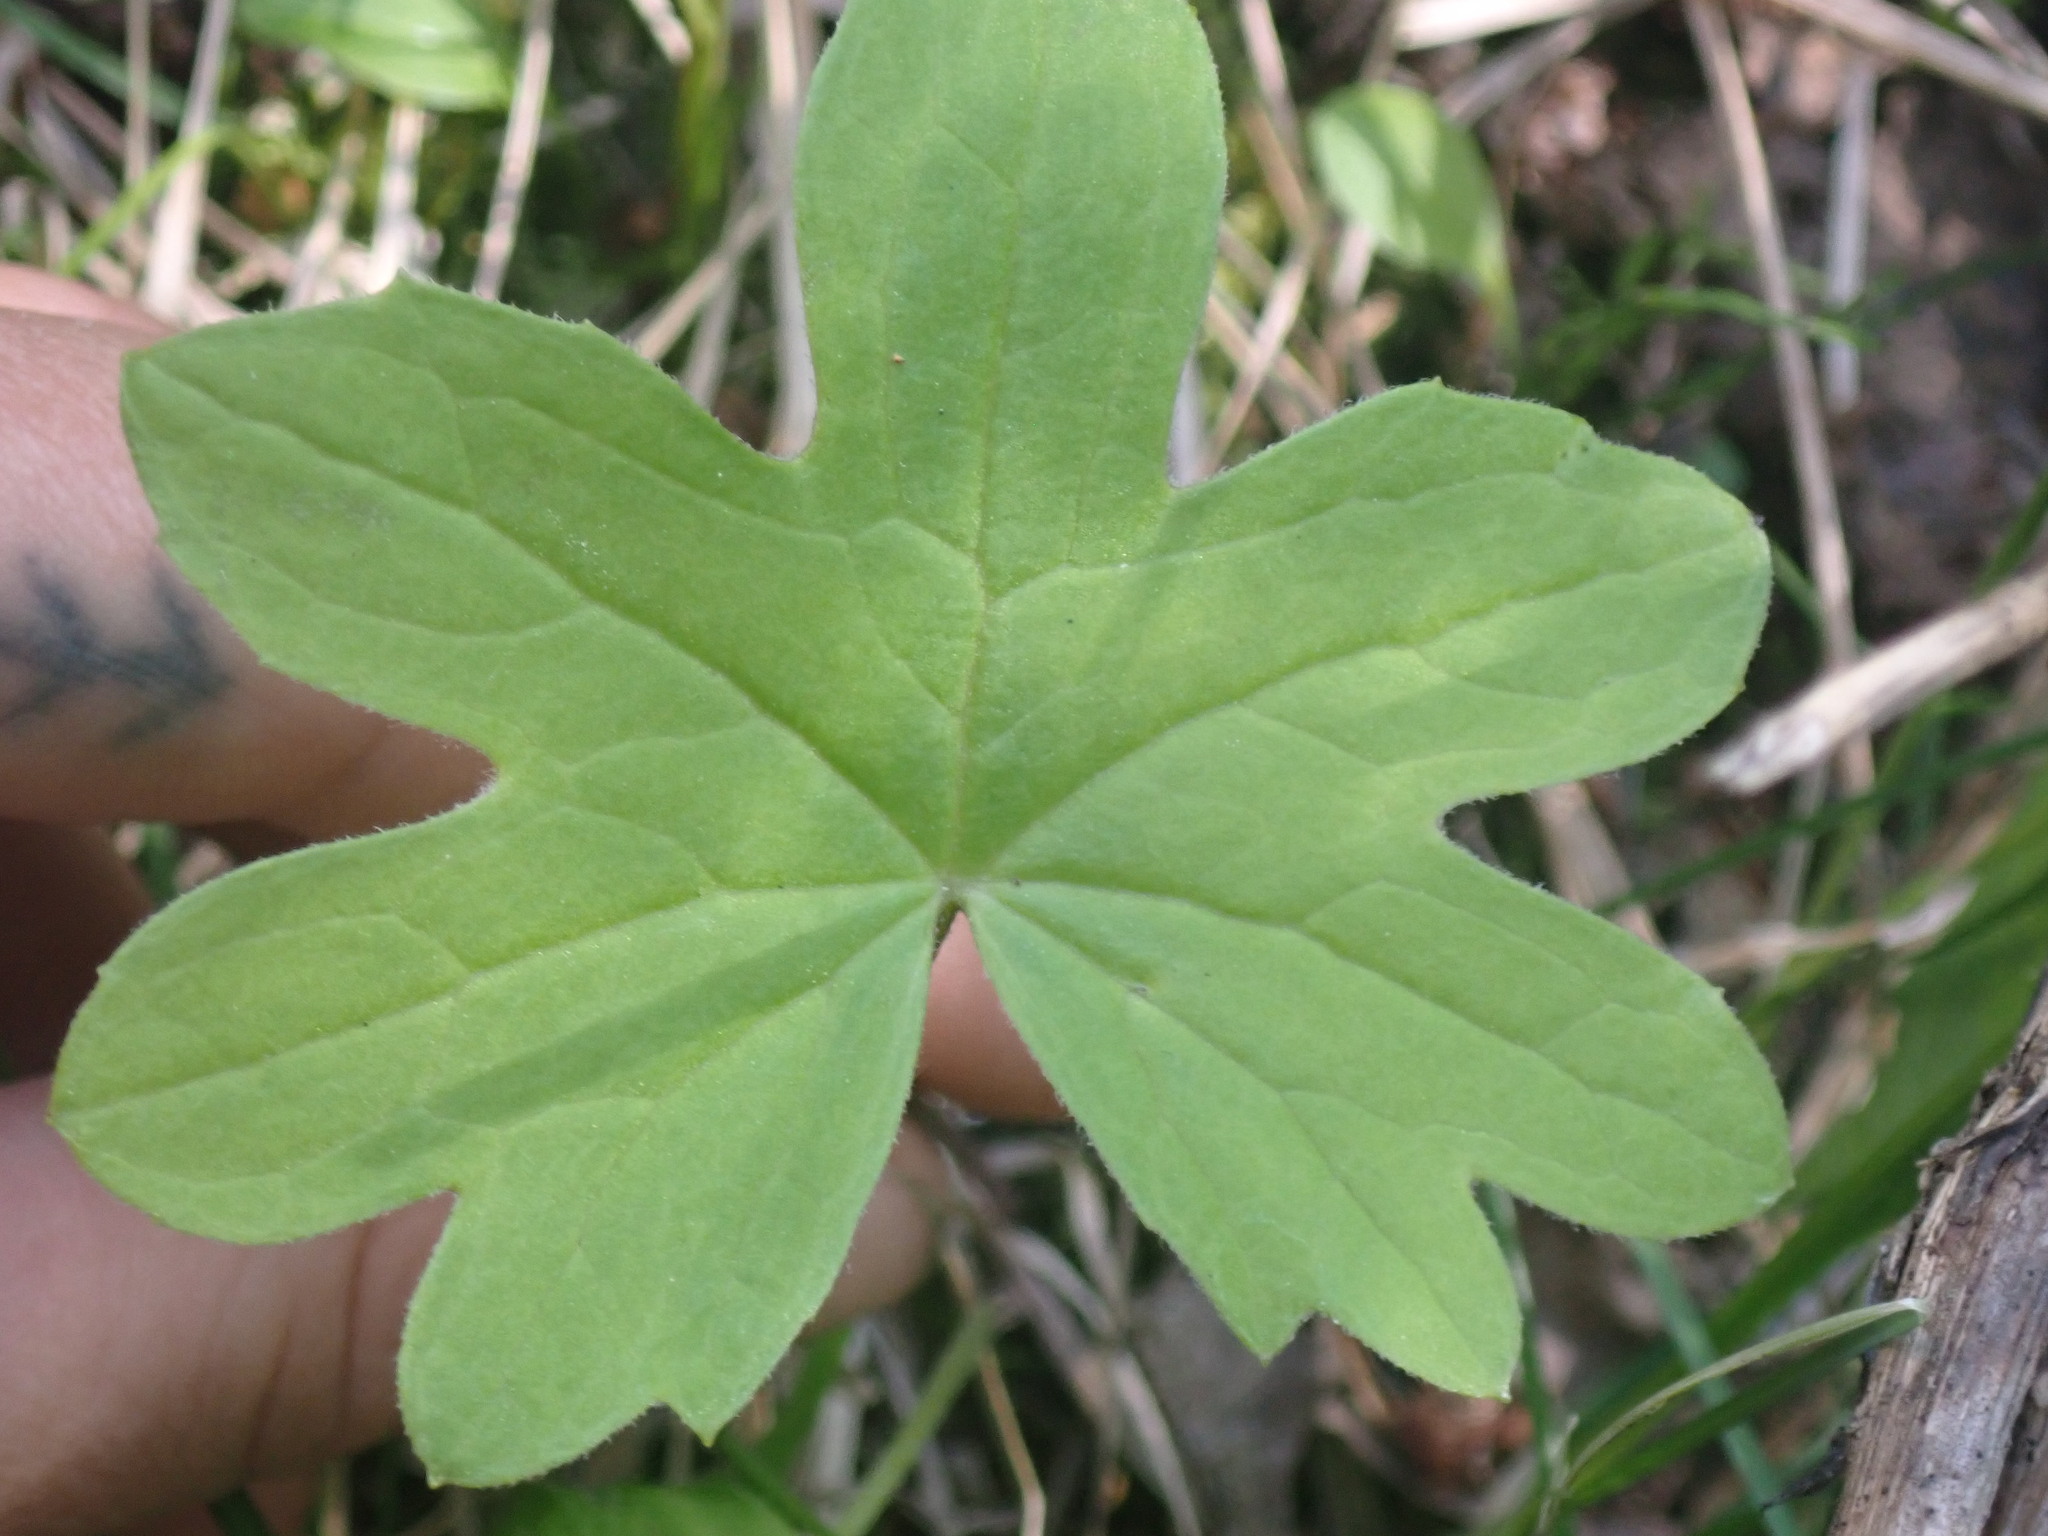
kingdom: Plantae
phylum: Tracheophyta
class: Magnoliopsida
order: Asterales
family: Asteraceae
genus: Petasites
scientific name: Petasites frigidus
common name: Arctic butterbur
